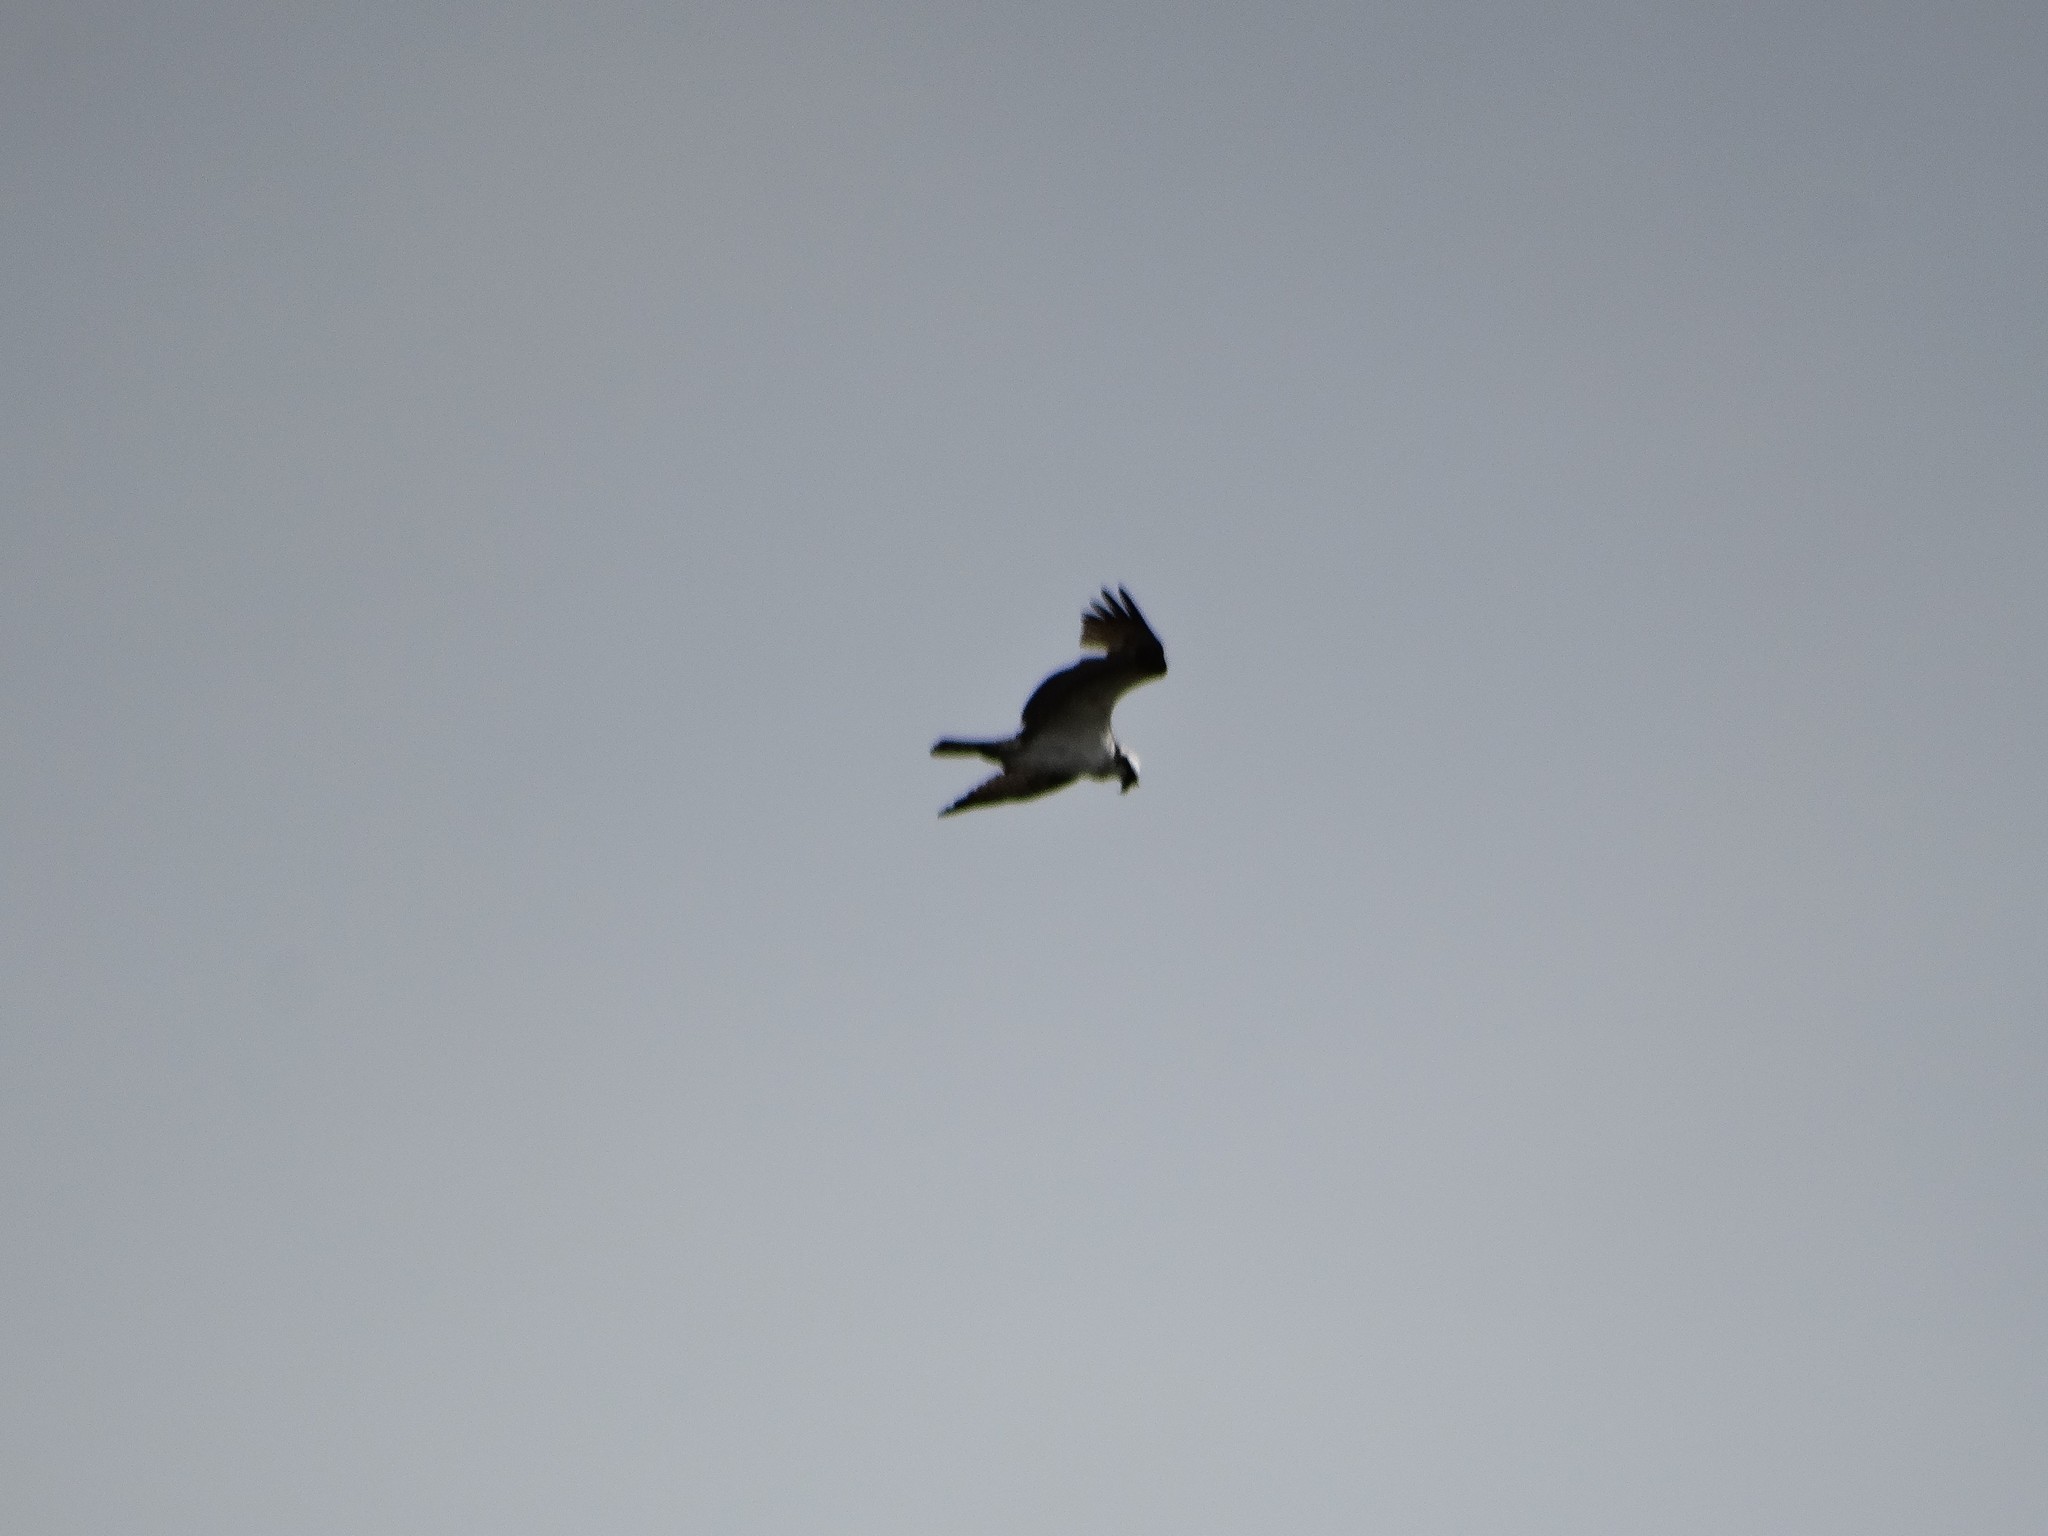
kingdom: Animalia
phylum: Chordata
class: Aves
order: Accipitriformes
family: Pandionidae
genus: Pandion
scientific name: Pandion haliaetus
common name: Osprey
